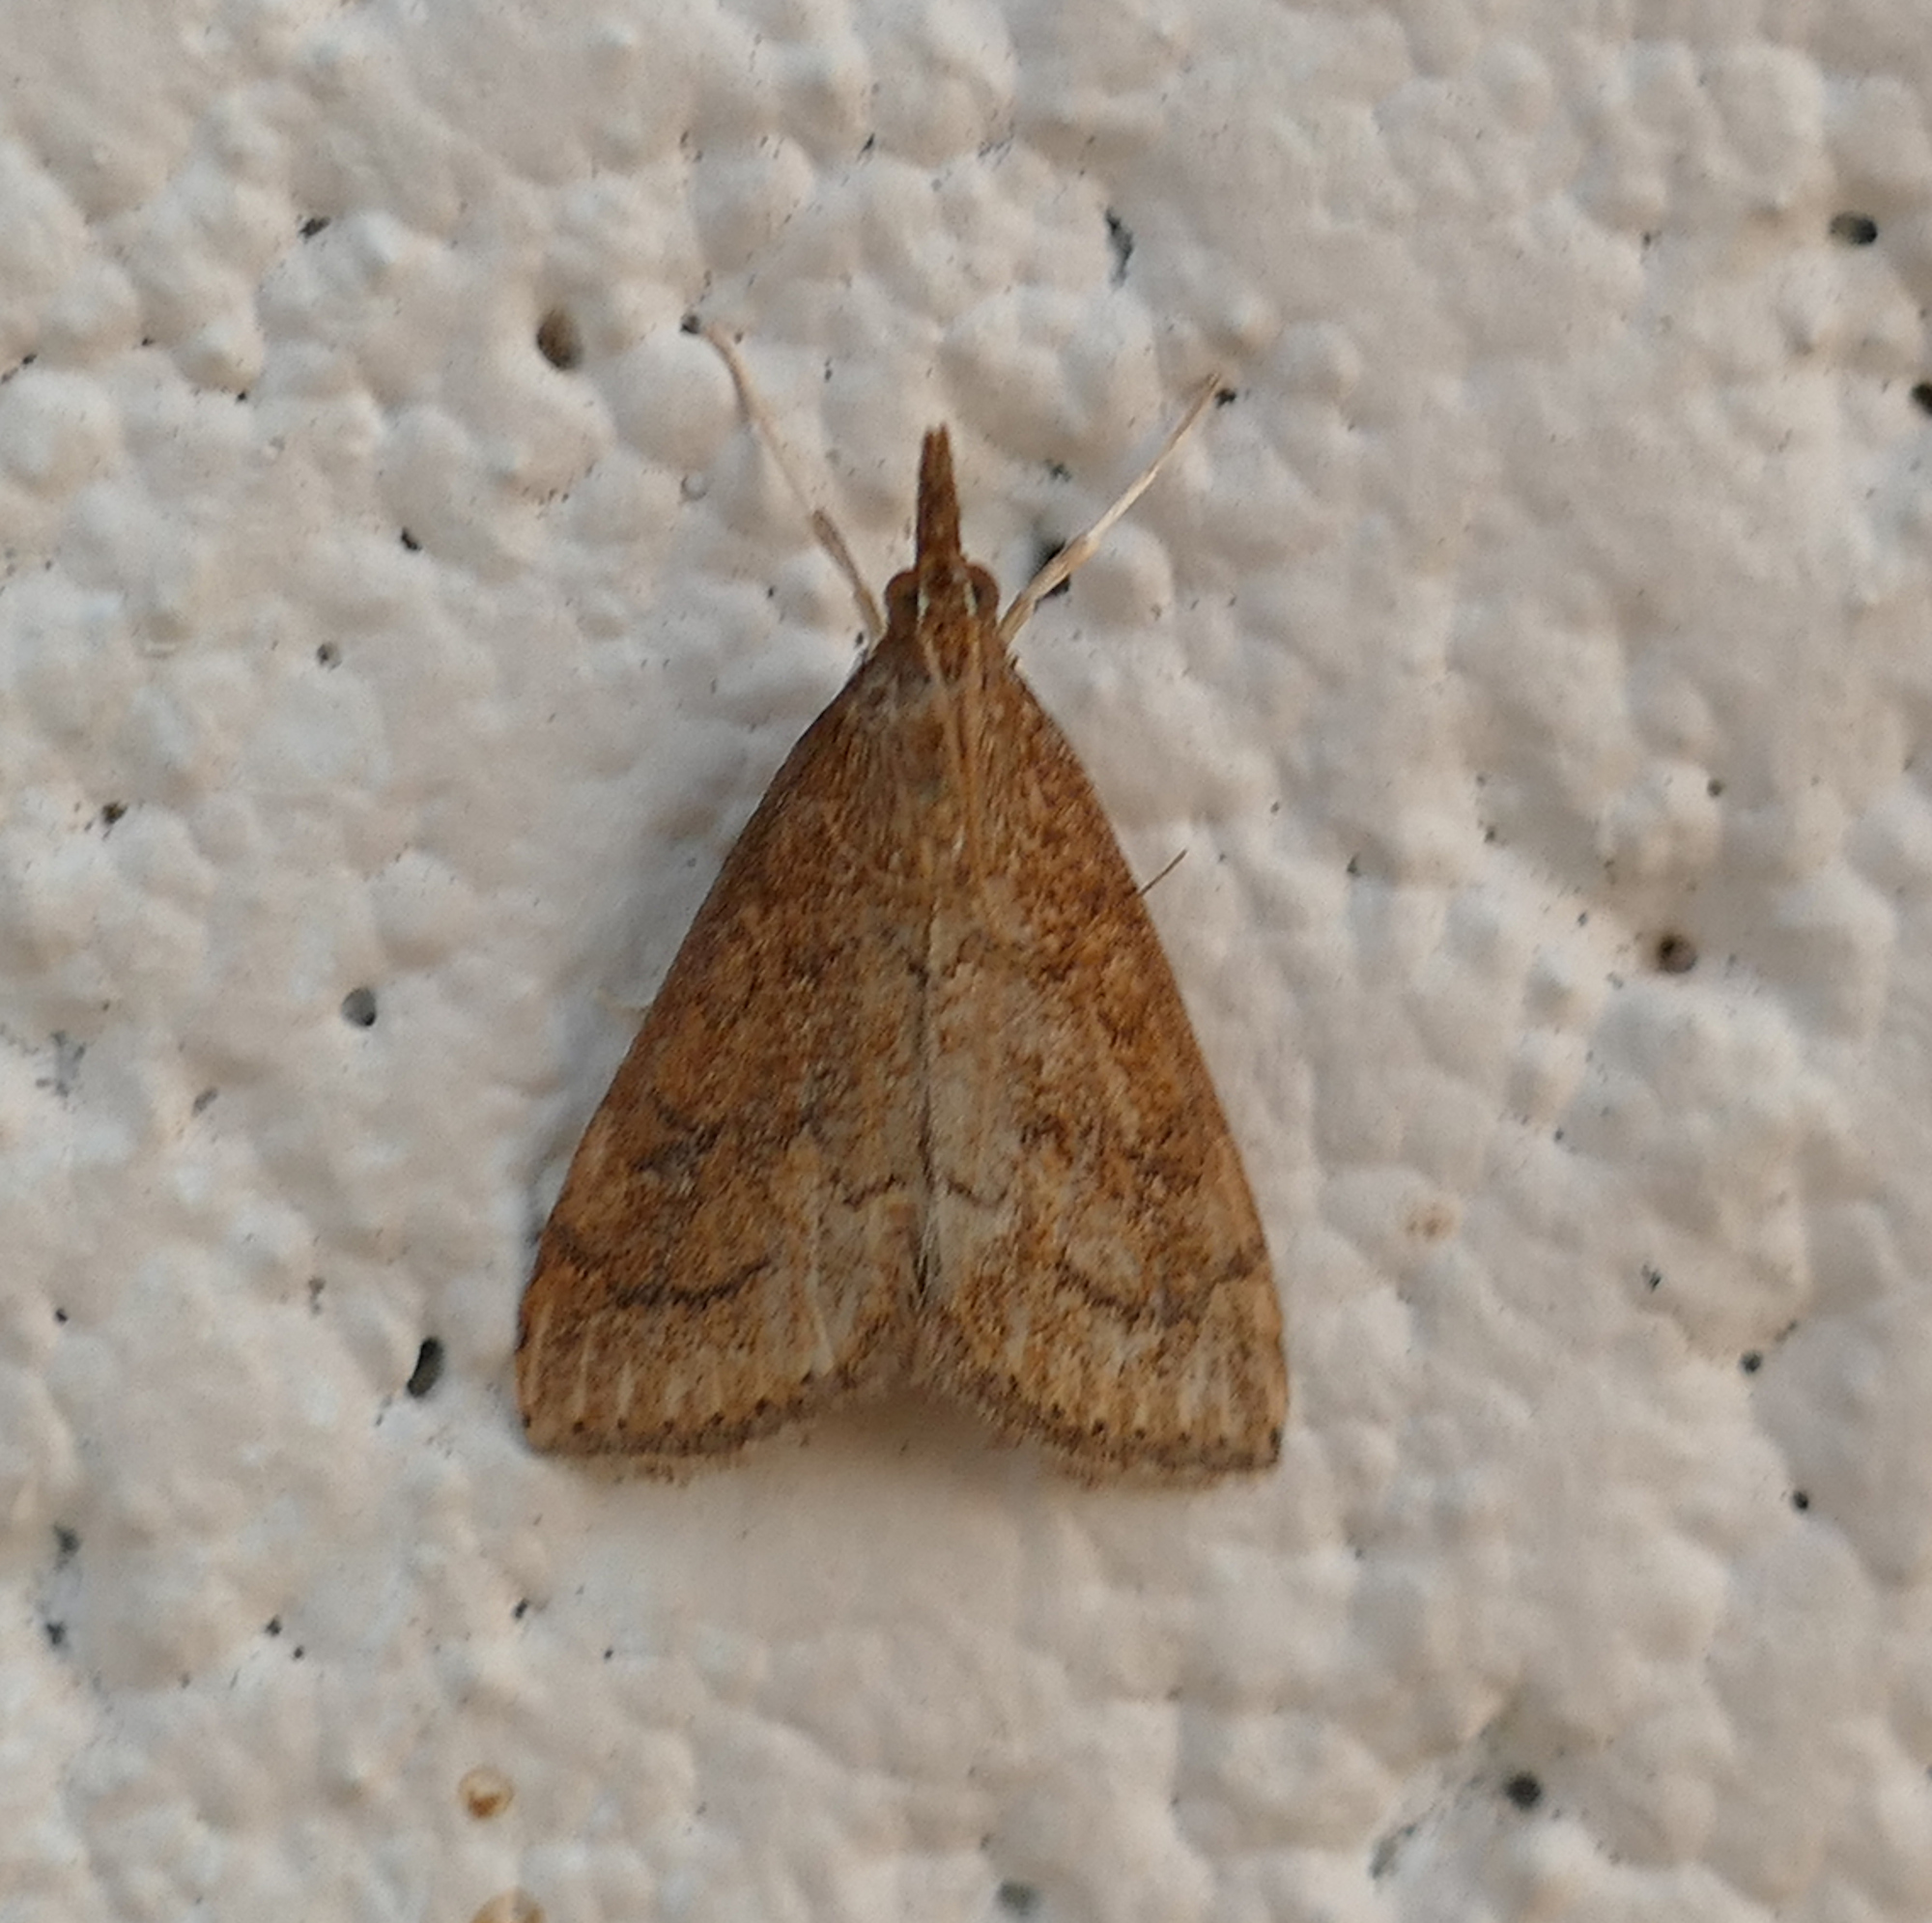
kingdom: Animalia
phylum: Arthropoda
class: Insecta
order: Lepidoptera
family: Crambidae
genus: Udea
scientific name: Udea rubigalis
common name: Celery leaftier moth
